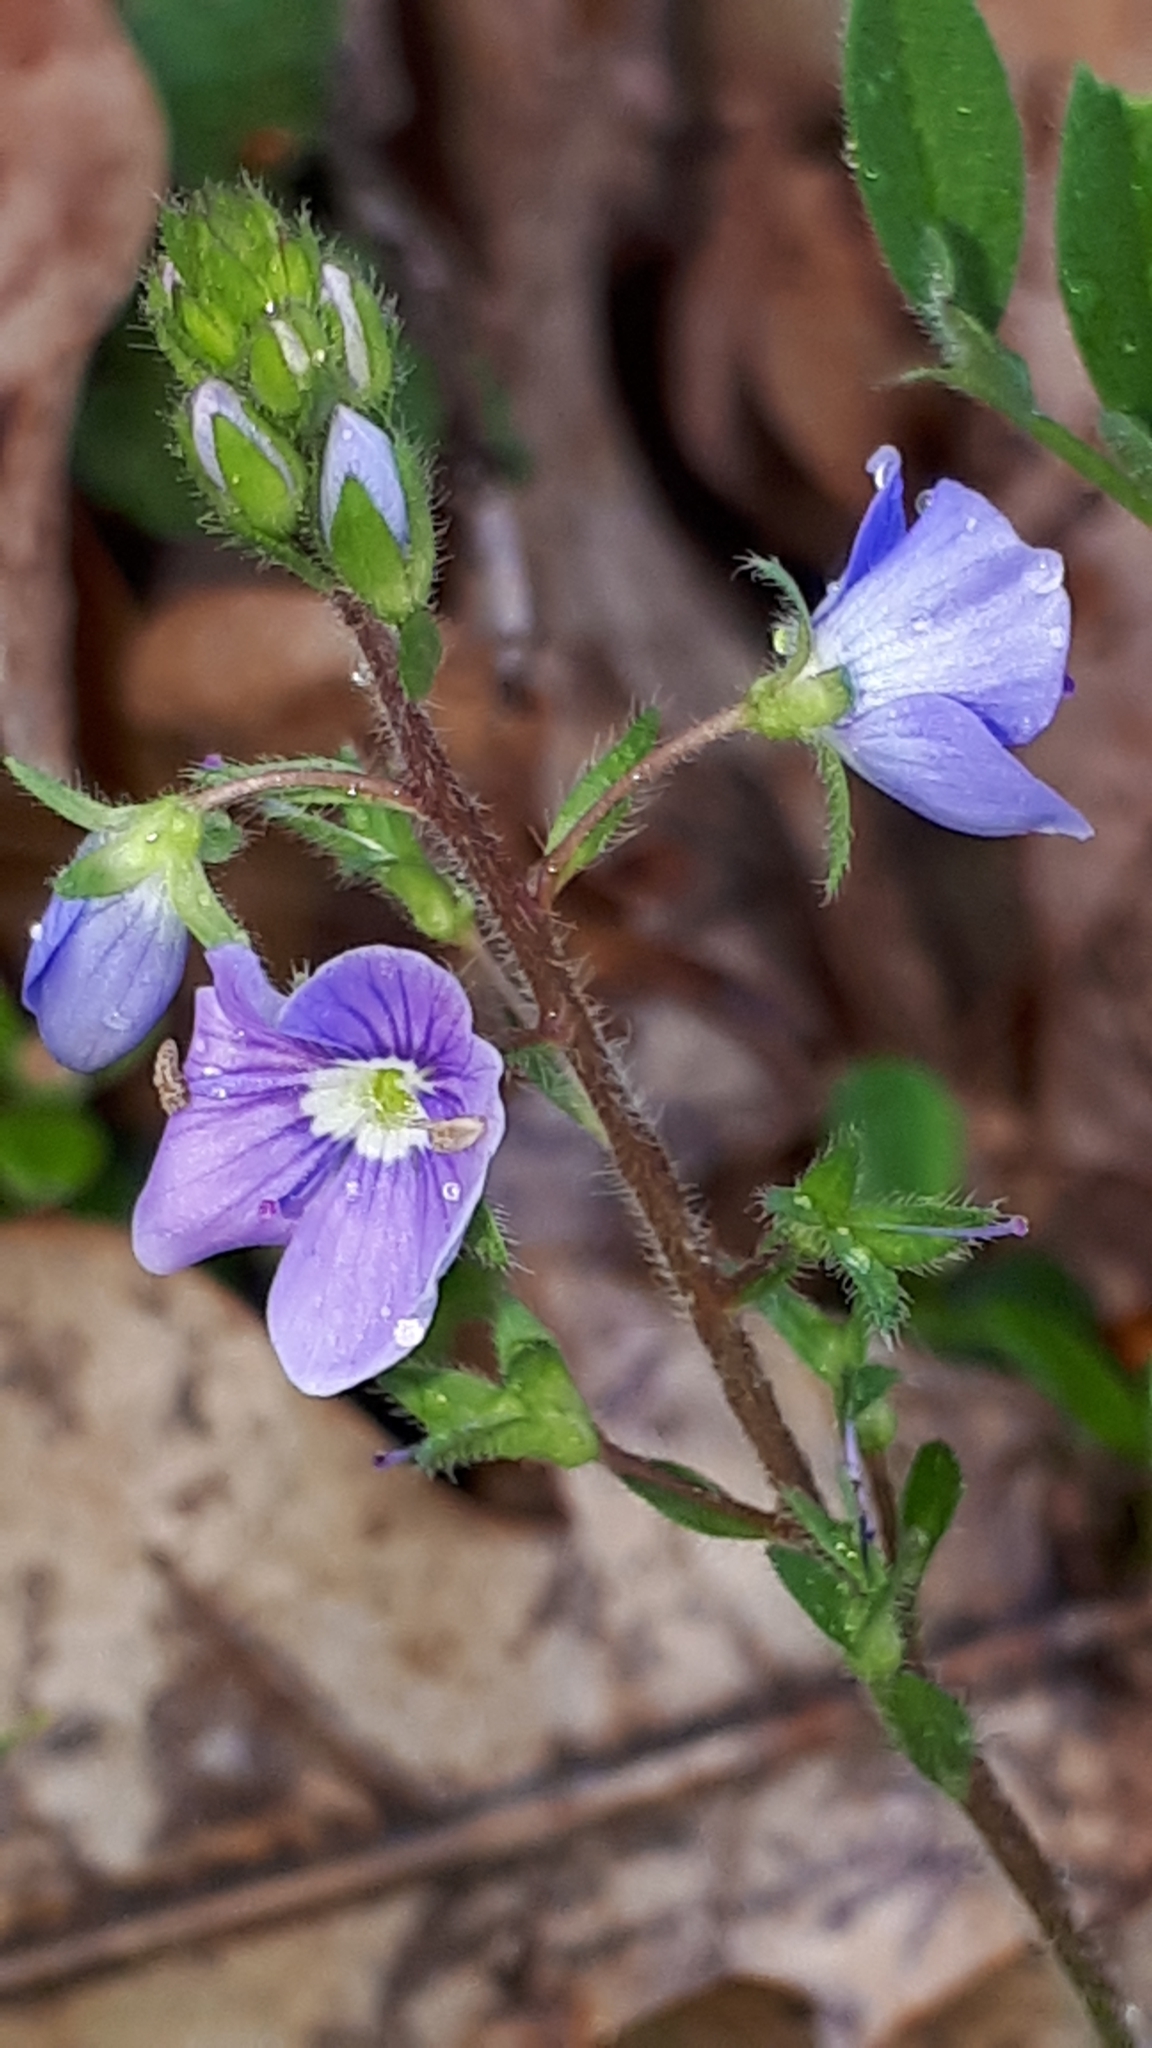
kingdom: Plantae
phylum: Tracheophyta
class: Magnoliopsida
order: Lamiales
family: Plantaginaceae
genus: Veronica
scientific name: Veronica chamaedrys
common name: Germander speedwell
